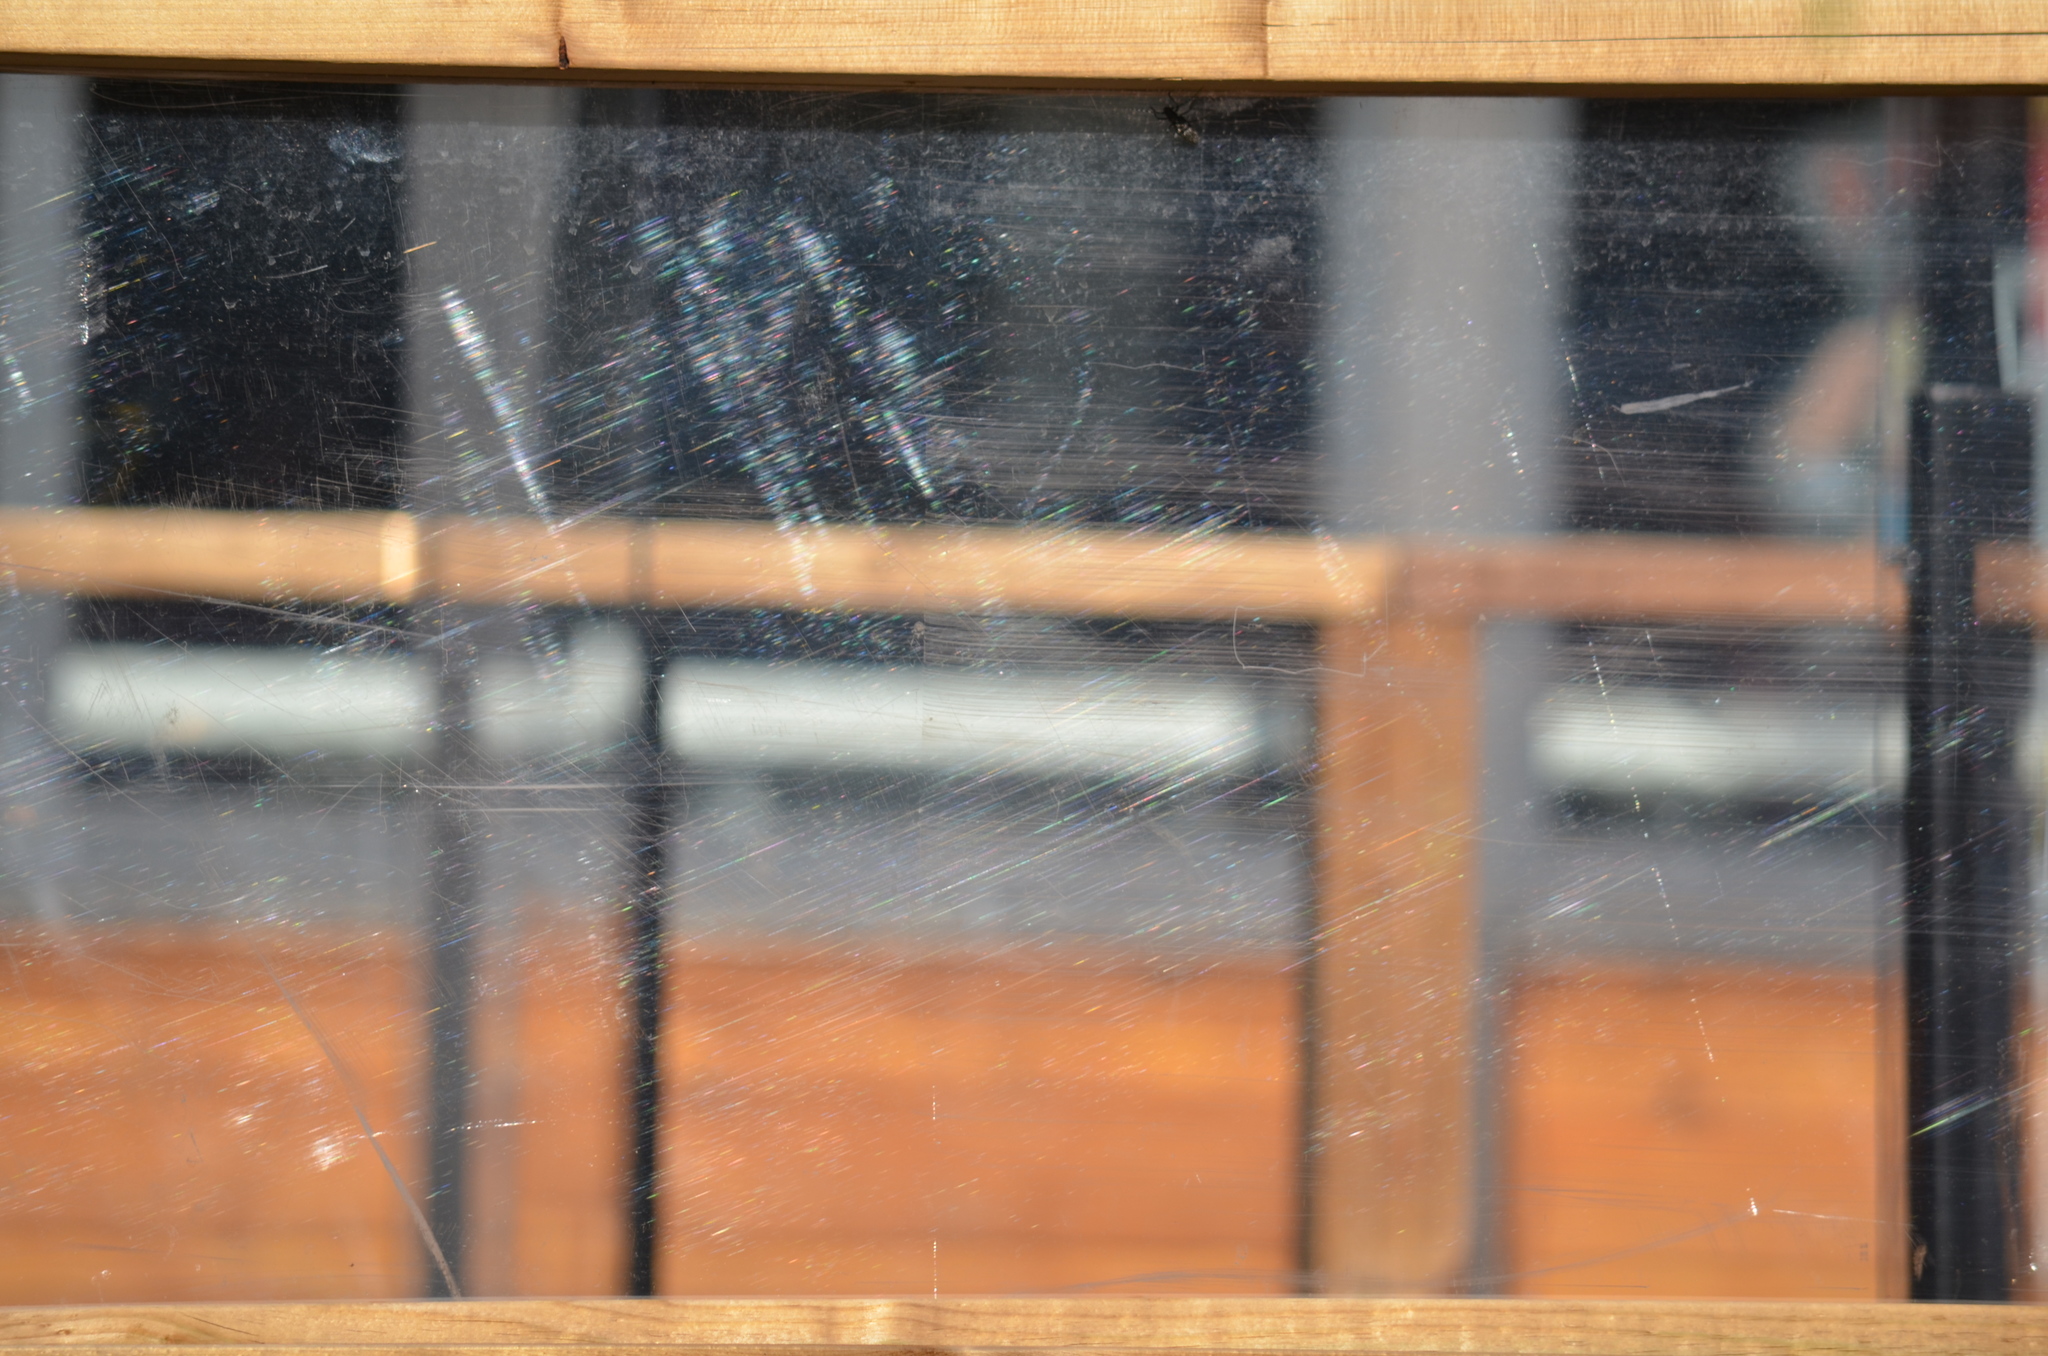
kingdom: Animalia
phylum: Arthropoda
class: Insecta
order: Coleoptera
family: Cerambycidae
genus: Monochamus
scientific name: Monochamus scutellatus
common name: White-spotted sawyer beetle
